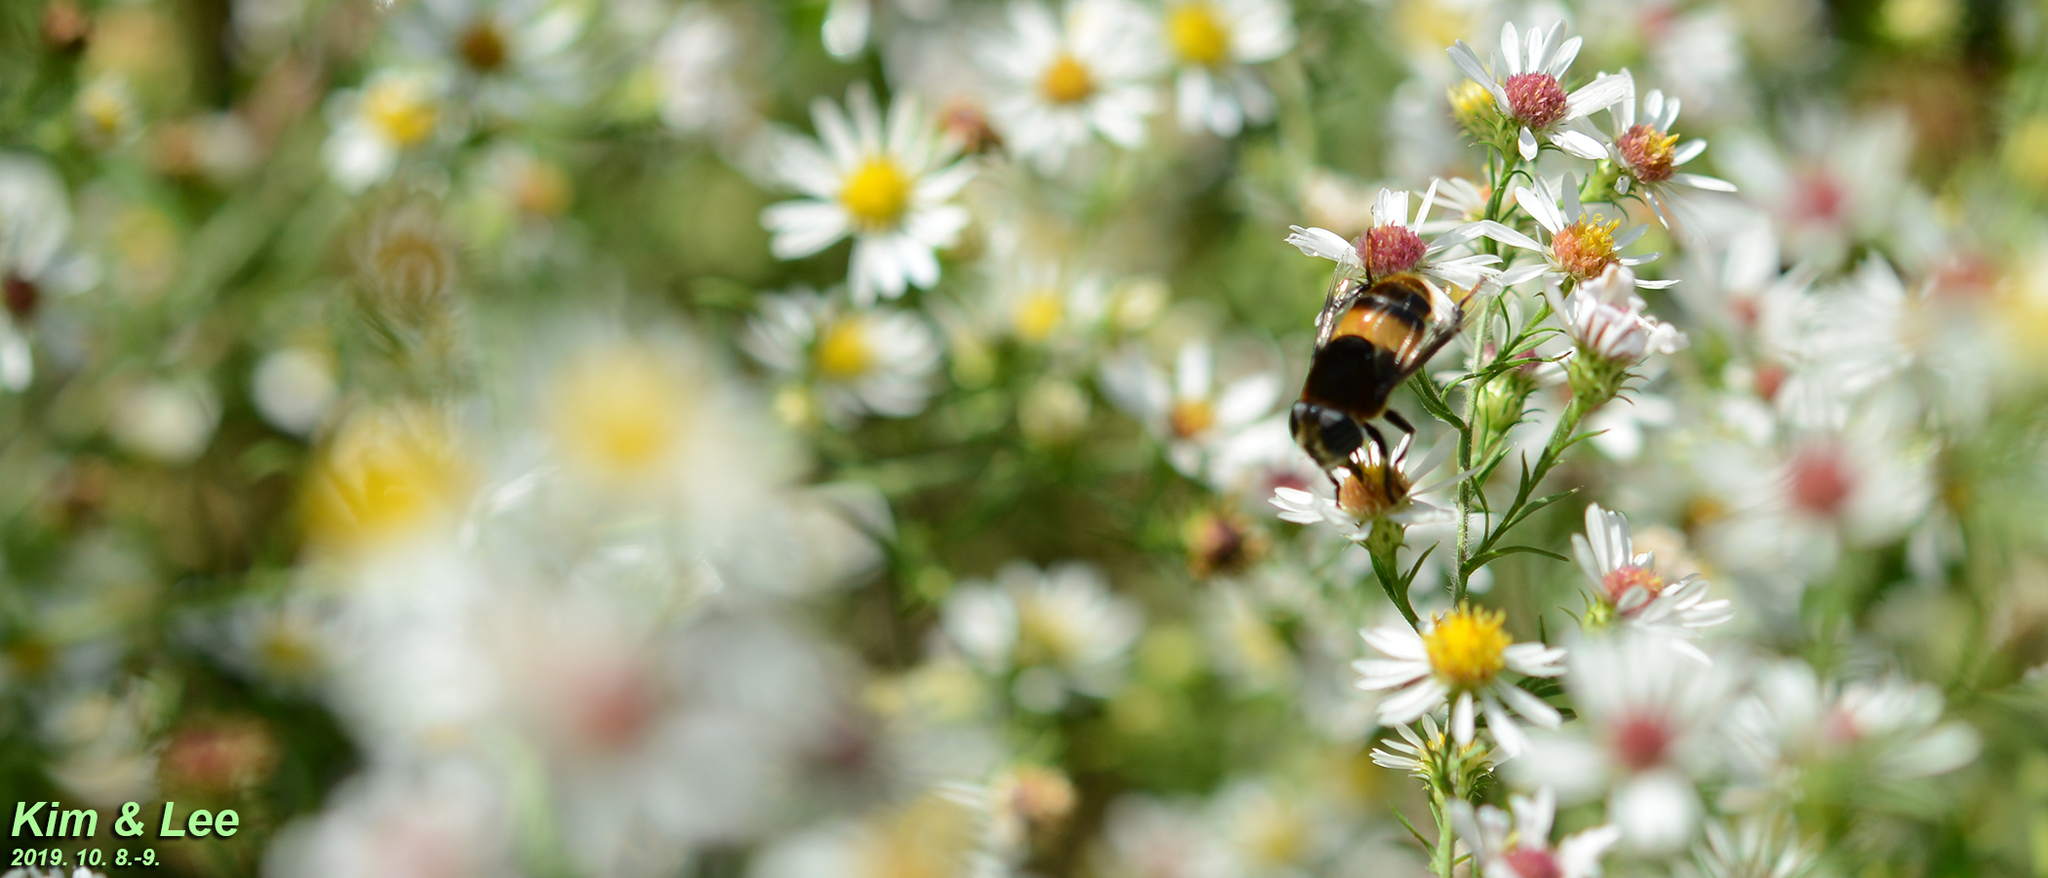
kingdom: Animalia
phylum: Arthropoda
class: Insecta
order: Diptera
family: Syrphidae
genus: Phytomia
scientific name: Phytomia zonata
